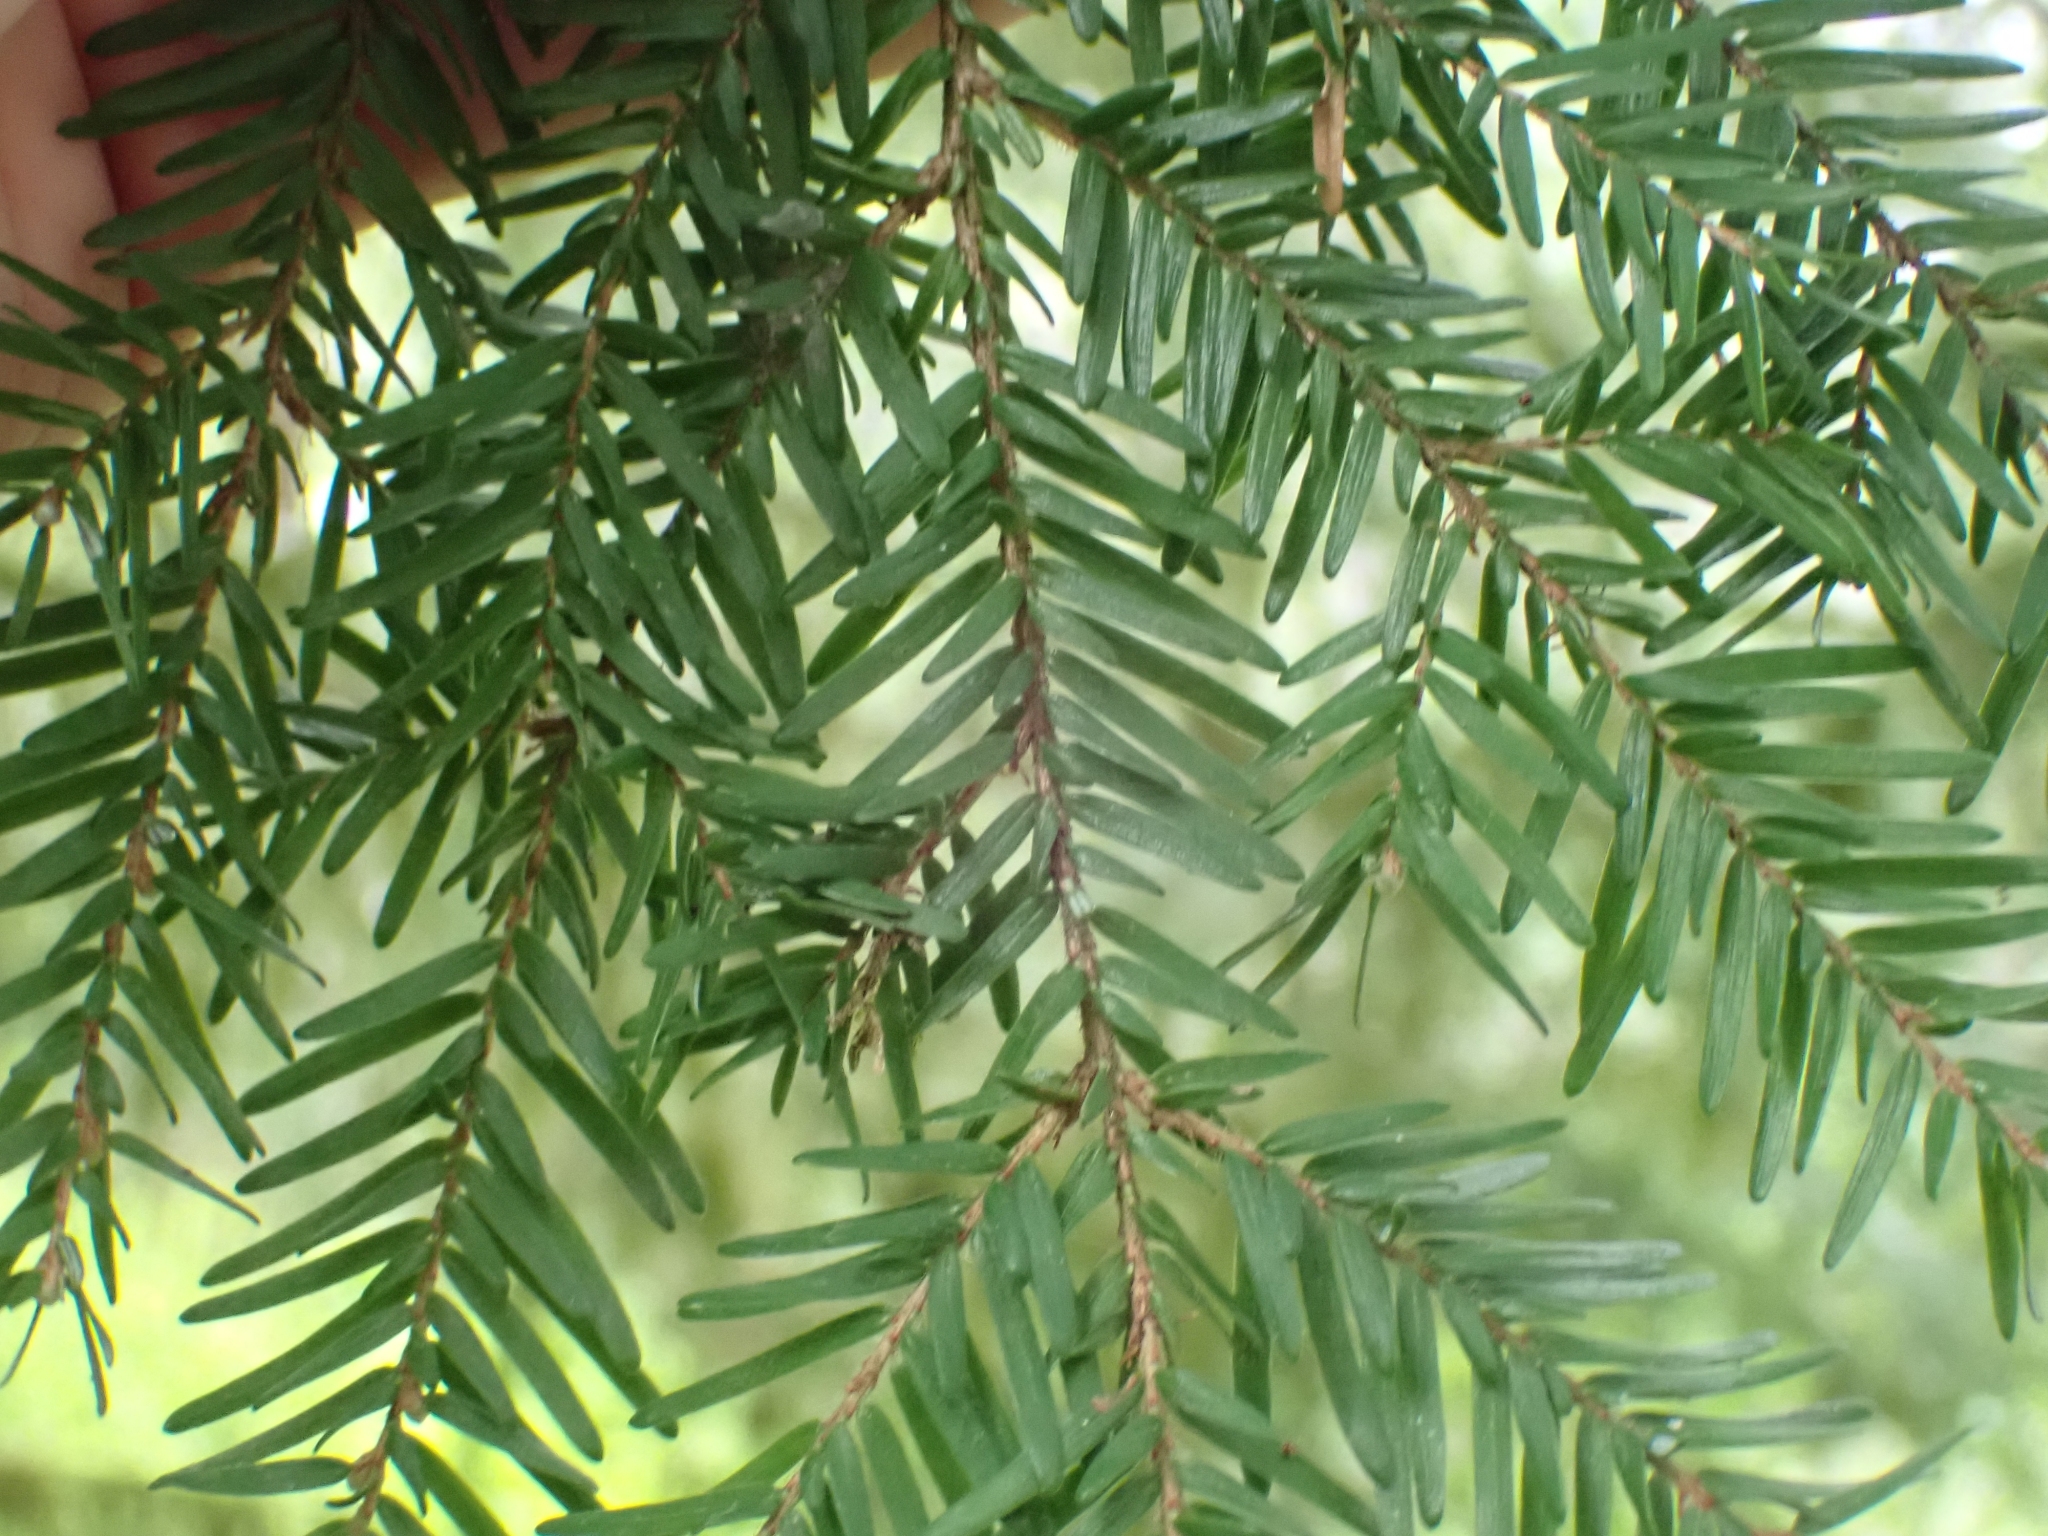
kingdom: Plantae
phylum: Tracheophyta
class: Pinopsida
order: Pinales
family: Pinaceae
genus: Tsuga
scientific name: Tsuga heterophylla
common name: Western hemlock
